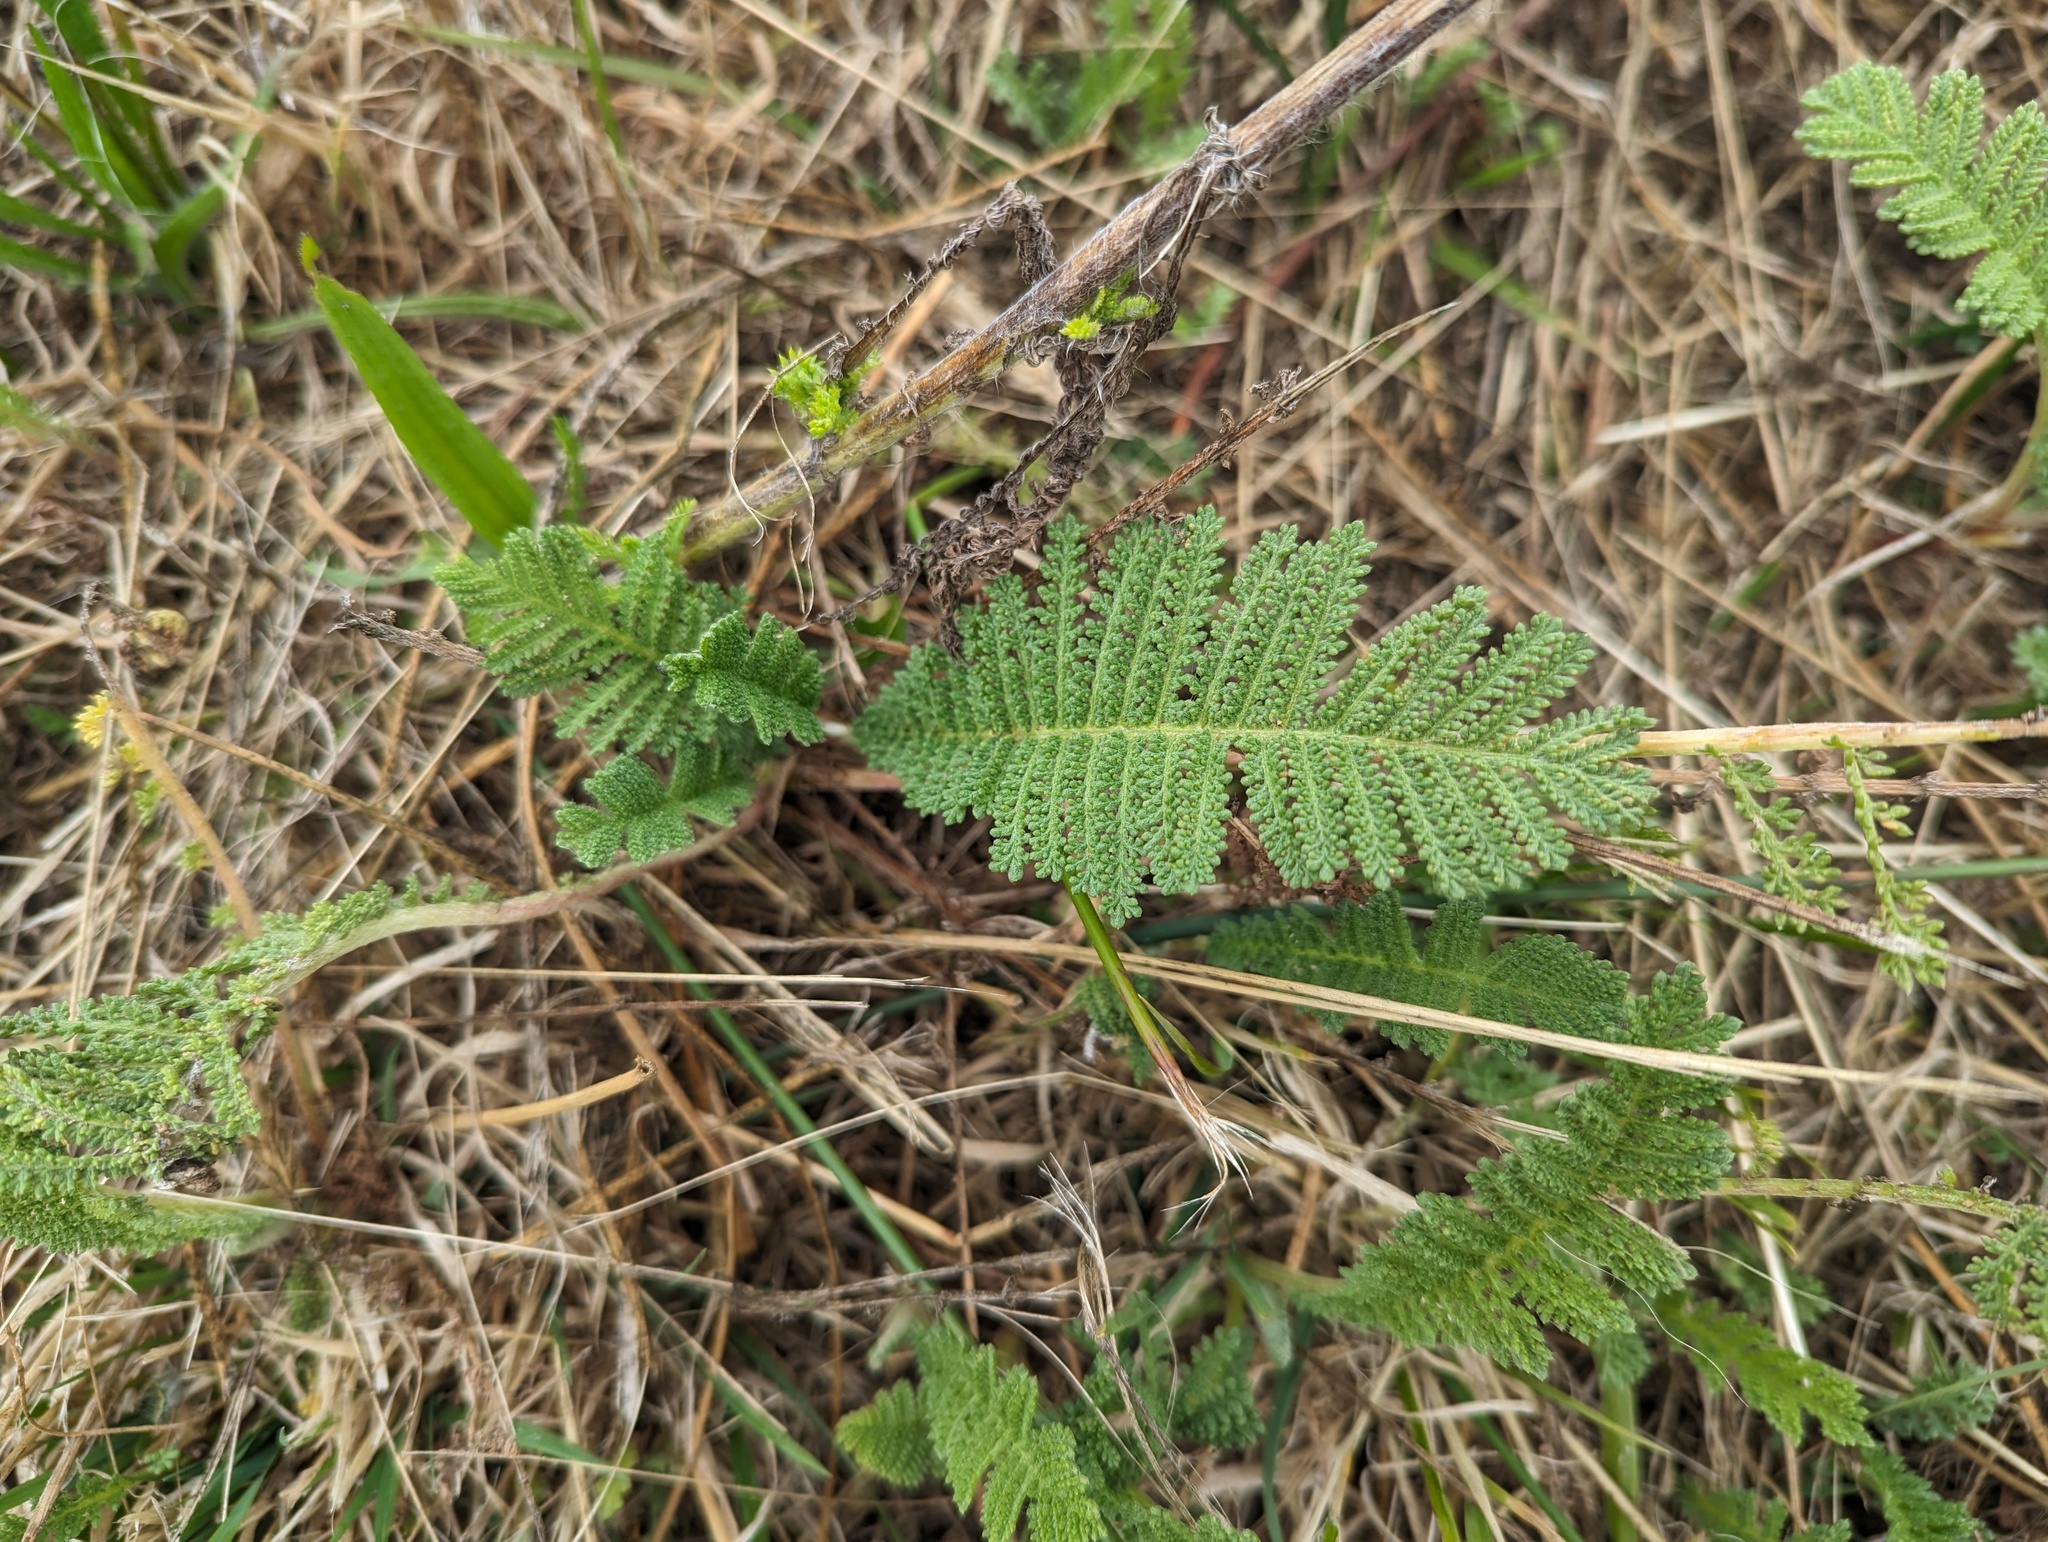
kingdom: Plantae
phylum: Tracheophyta
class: Magnoliopsida
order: Asterales
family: Asteraceae
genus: Tanacetum
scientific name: Tanacetum bipinnatum
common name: Dwarf tansy
